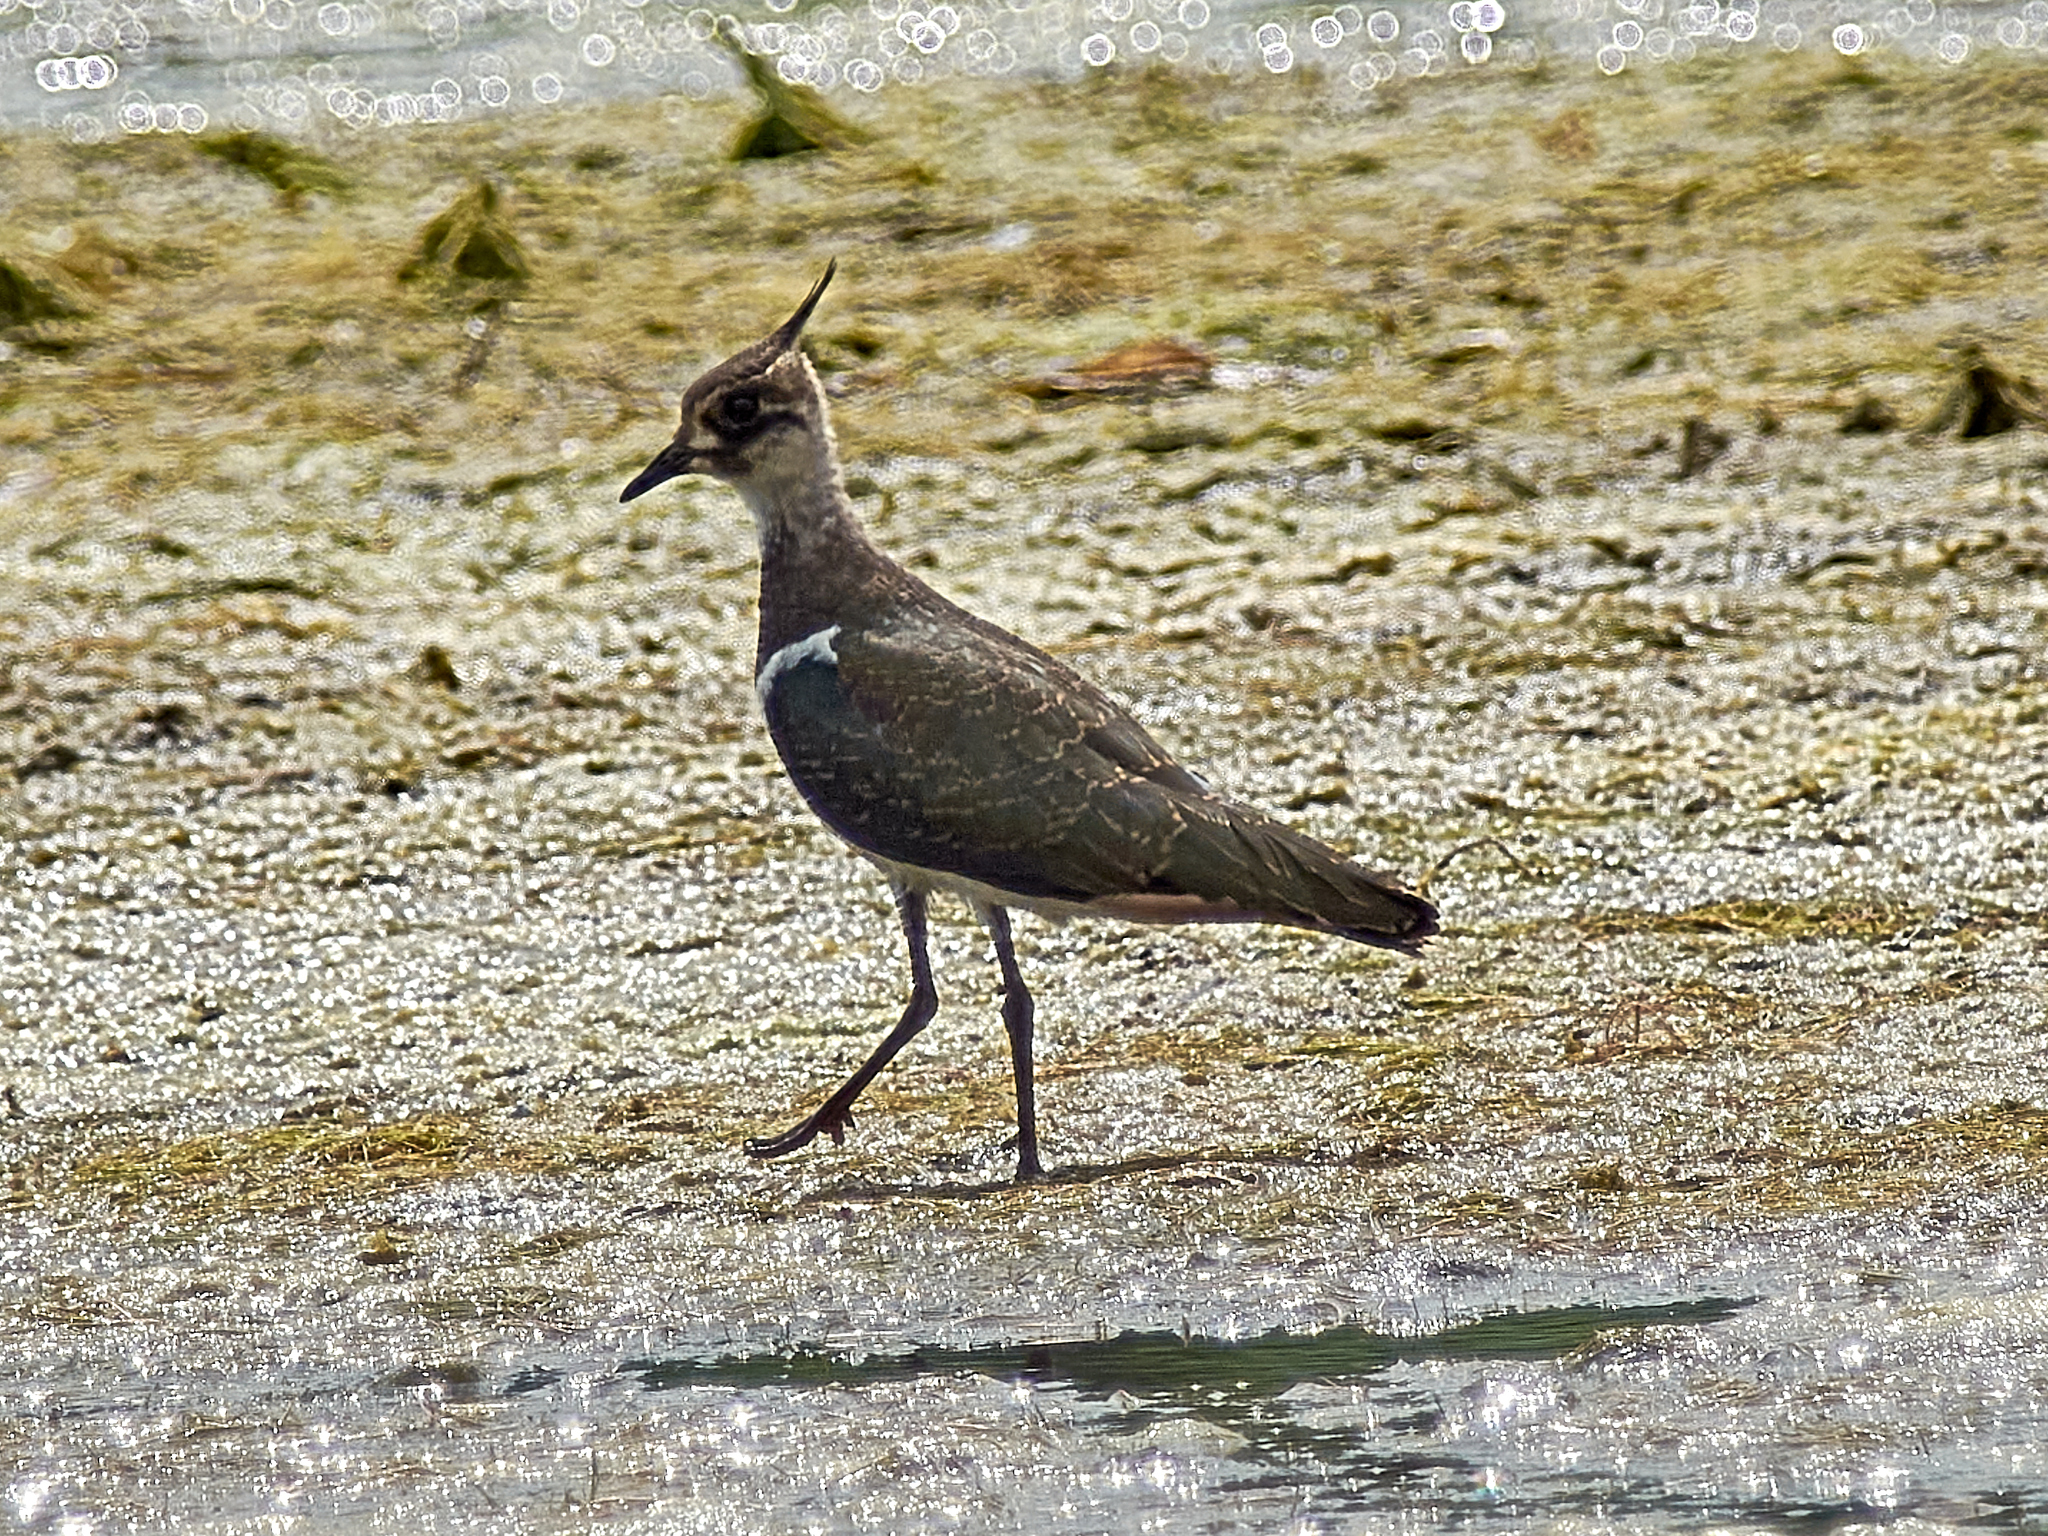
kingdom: Animalia
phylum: Chordata
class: Aves
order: Charadriiformes
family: Charadriidae
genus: Vanellus
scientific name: Vanellus vanellus
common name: Northern lapwing
